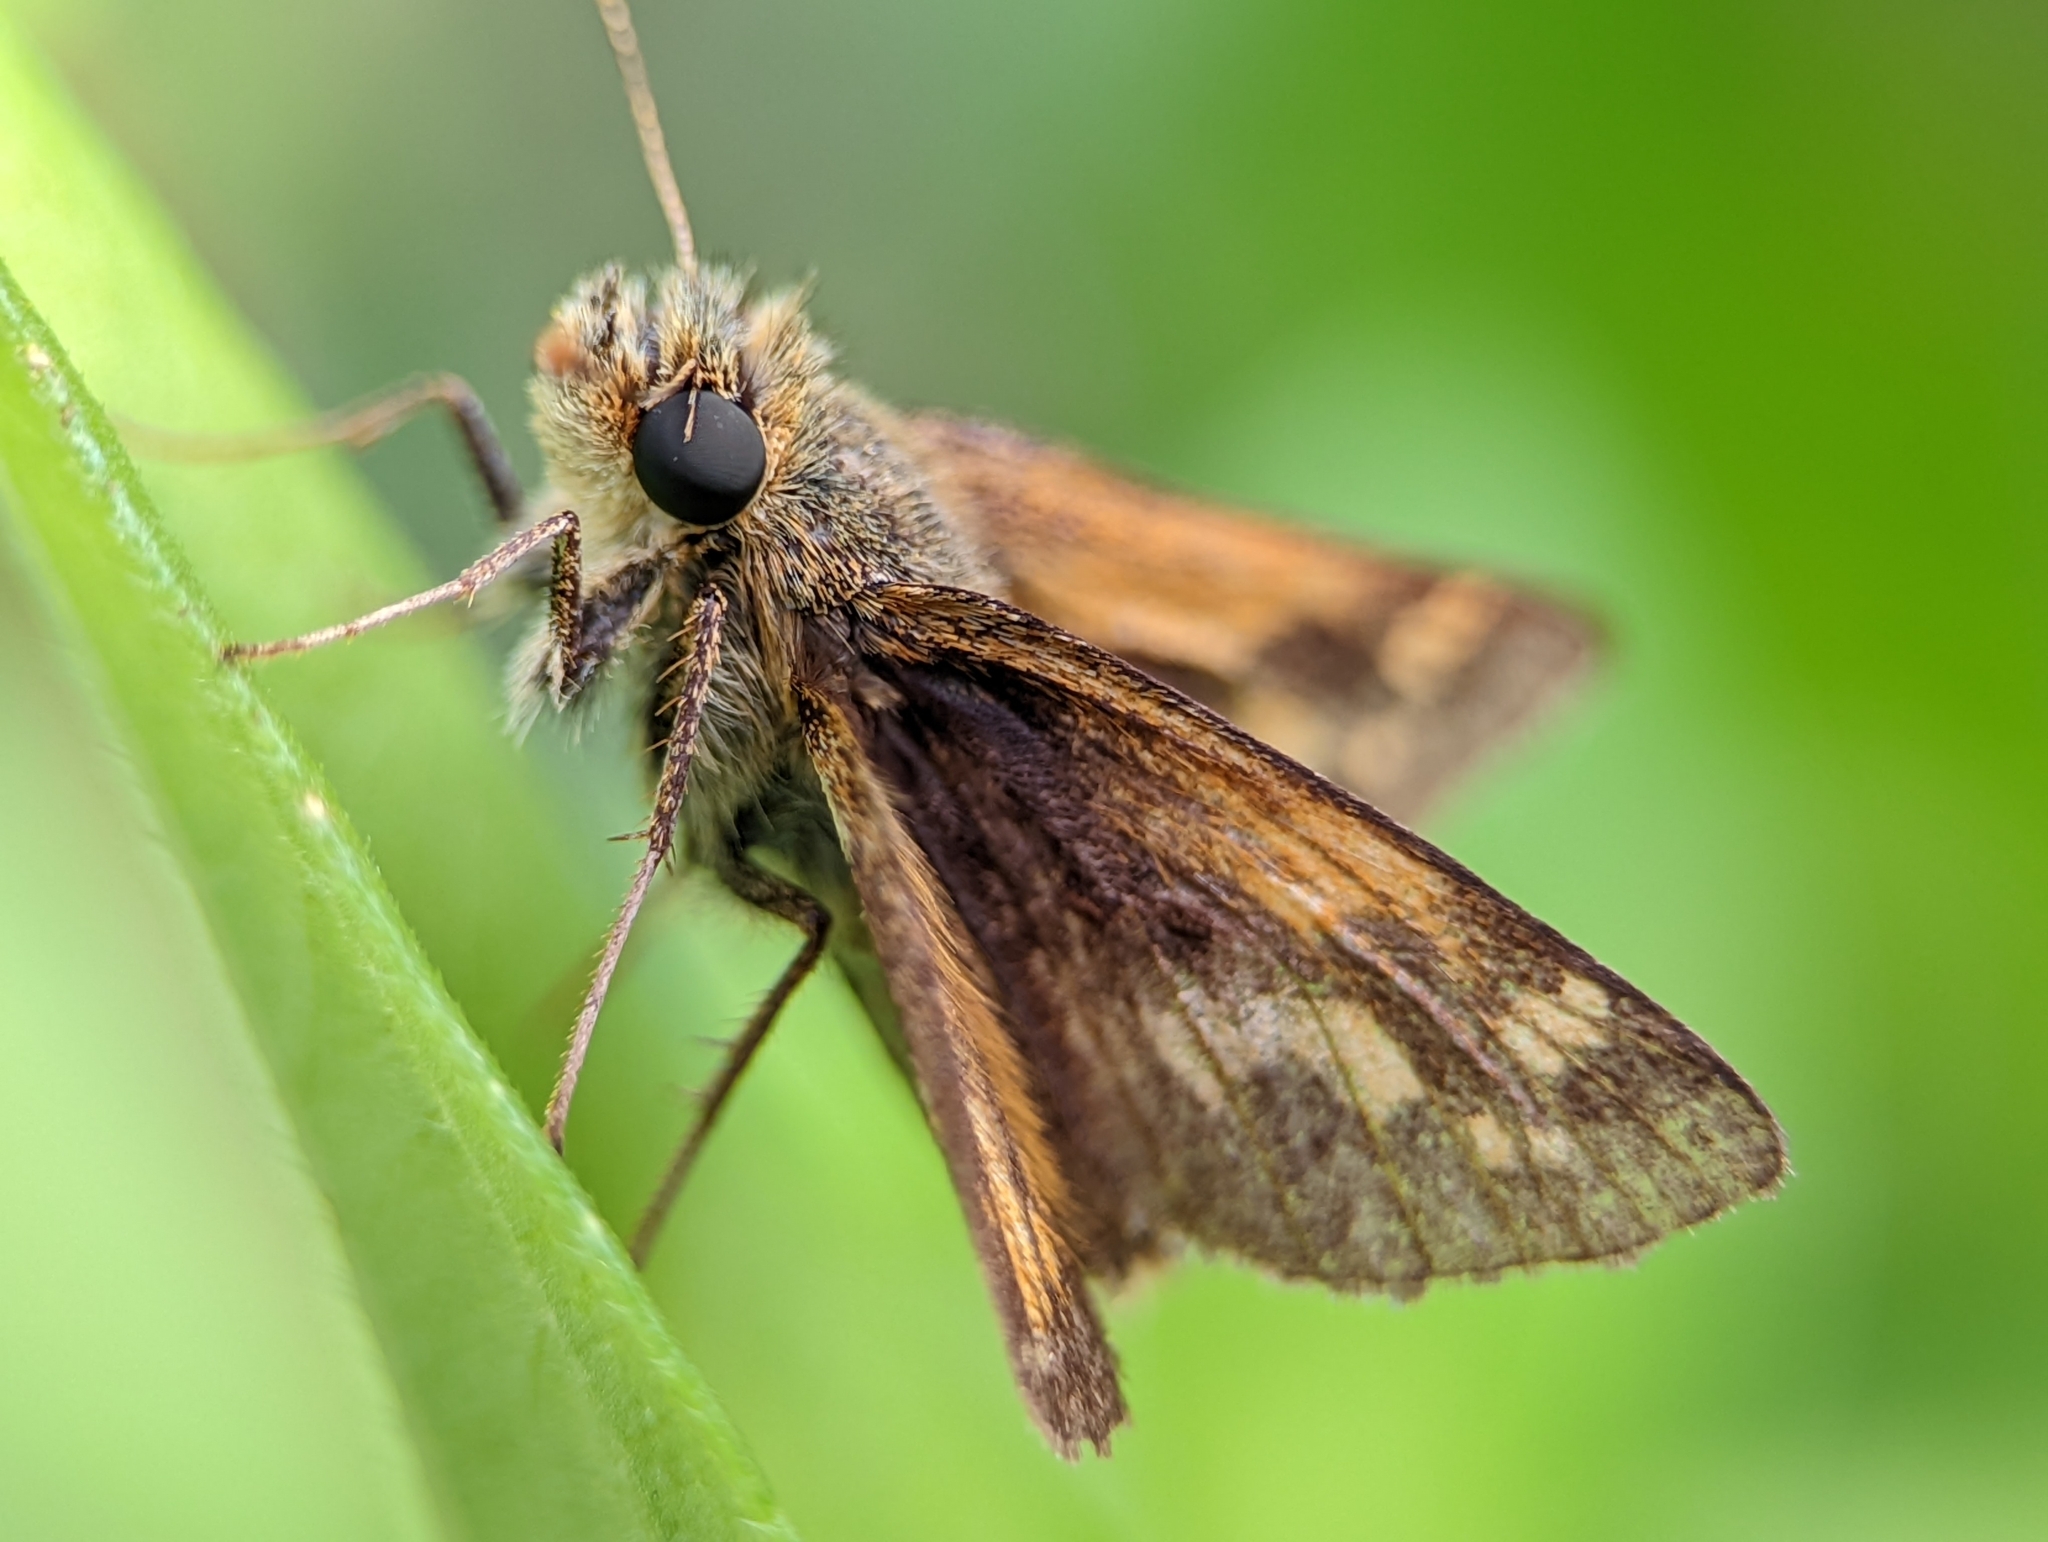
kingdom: Animalia
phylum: Arthropoda
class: Insecta
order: Lepidoptera
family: Hesperiidae
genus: Polites
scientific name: Polites coras
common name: Peck's skipper
